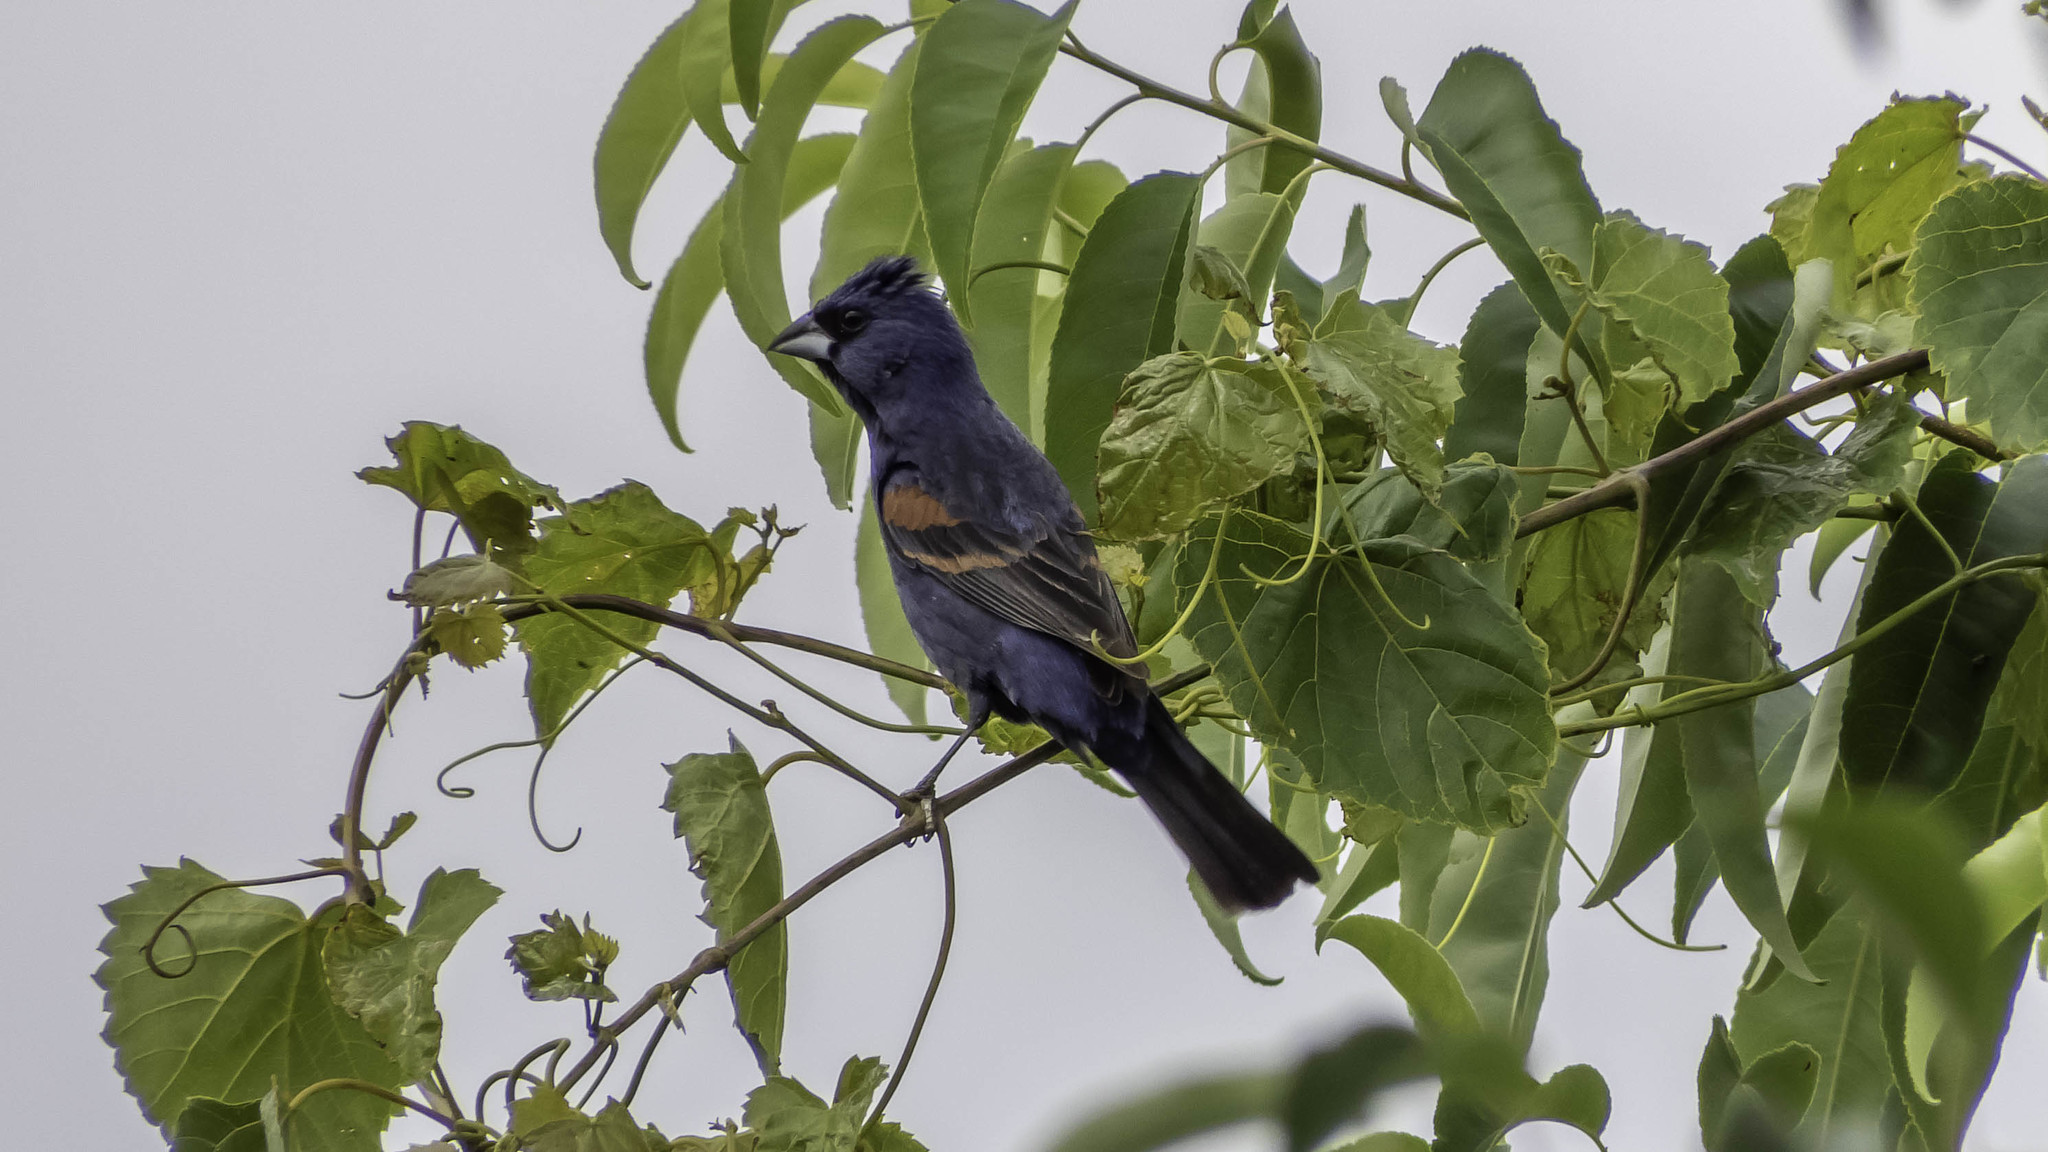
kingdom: Animalia
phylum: Chordata
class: Aves
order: Passeriformes
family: Cardinalidae
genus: Passerina
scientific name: Passerina caerulea
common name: Blue grosbeak
